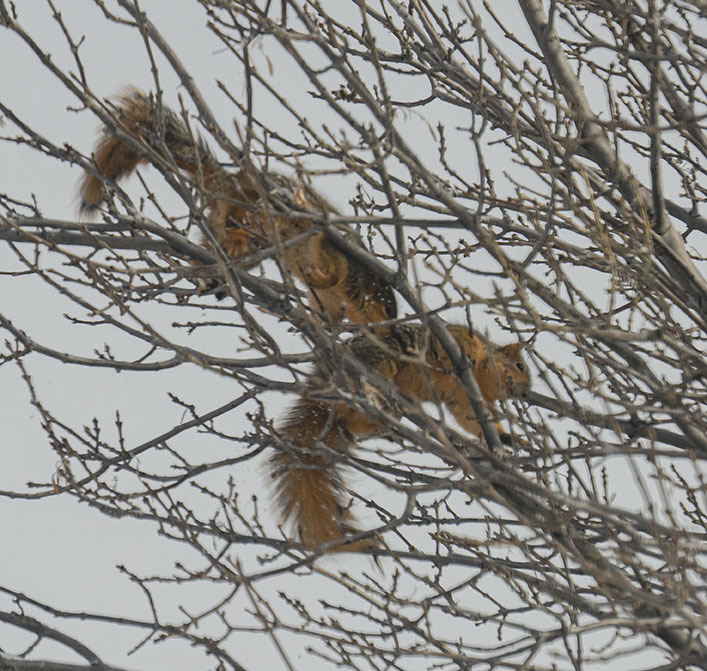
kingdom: Animalia
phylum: Chordata
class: Mammalia
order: Rodentia
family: Sciuridae
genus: Sciurus
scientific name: Sciurus niger
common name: Fox squirrel
